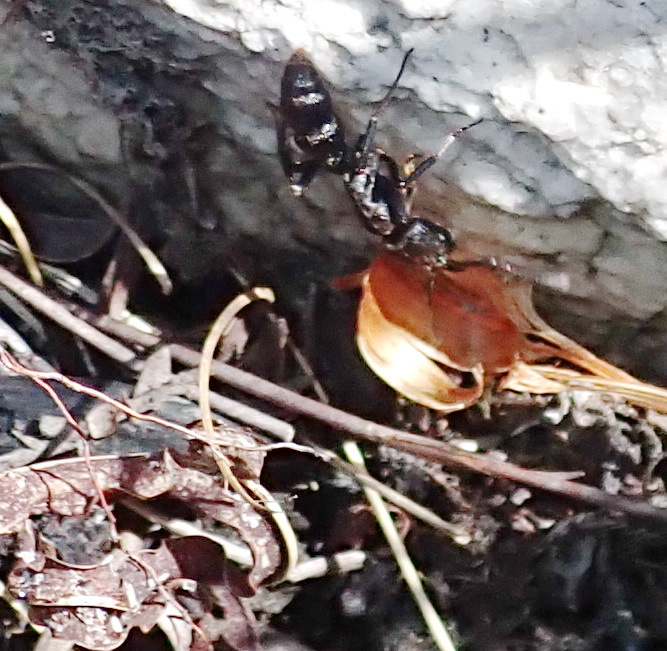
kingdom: Animalia
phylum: Arthropoda
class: Insecta
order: Hymenoptera
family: Formicidae
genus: Bothroponera
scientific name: Bothroponera cariosa
